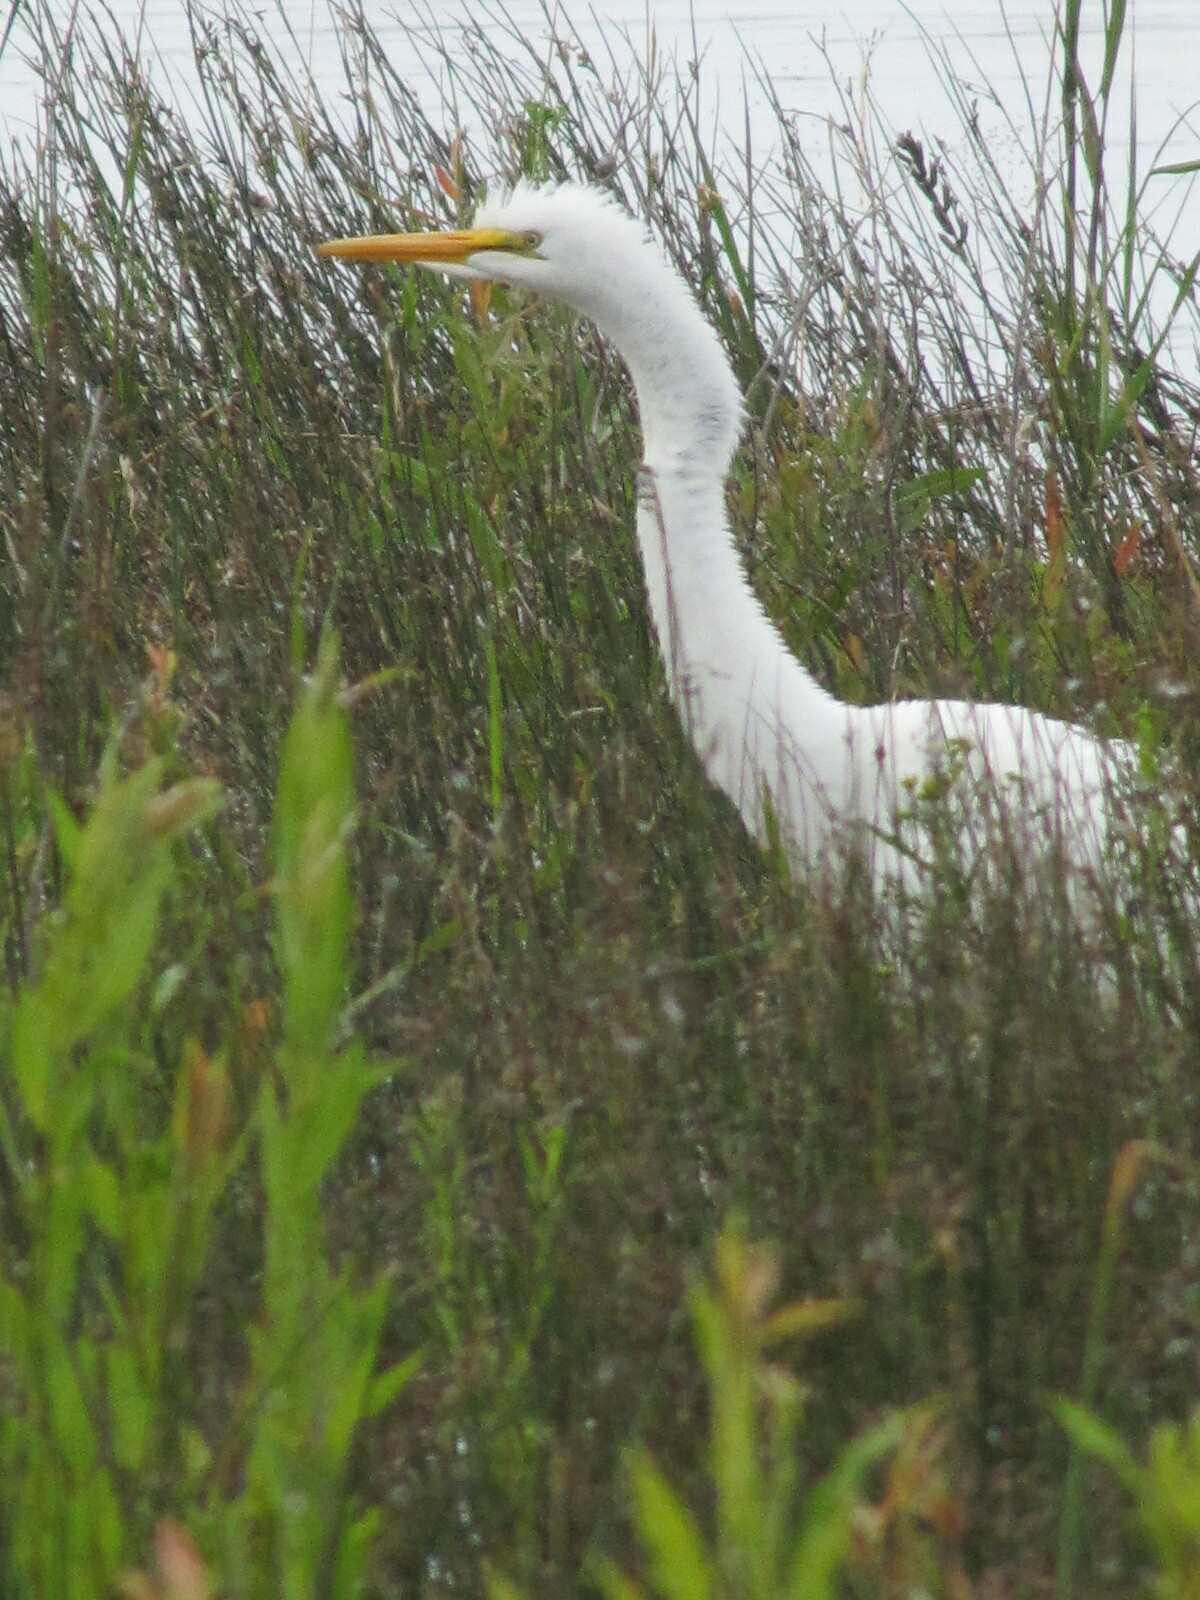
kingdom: Animalia
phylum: Chordata
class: Aves
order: Pelecaniformes
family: Ardeidae
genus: Ardea
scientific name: Ardea alba
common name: Great egret
